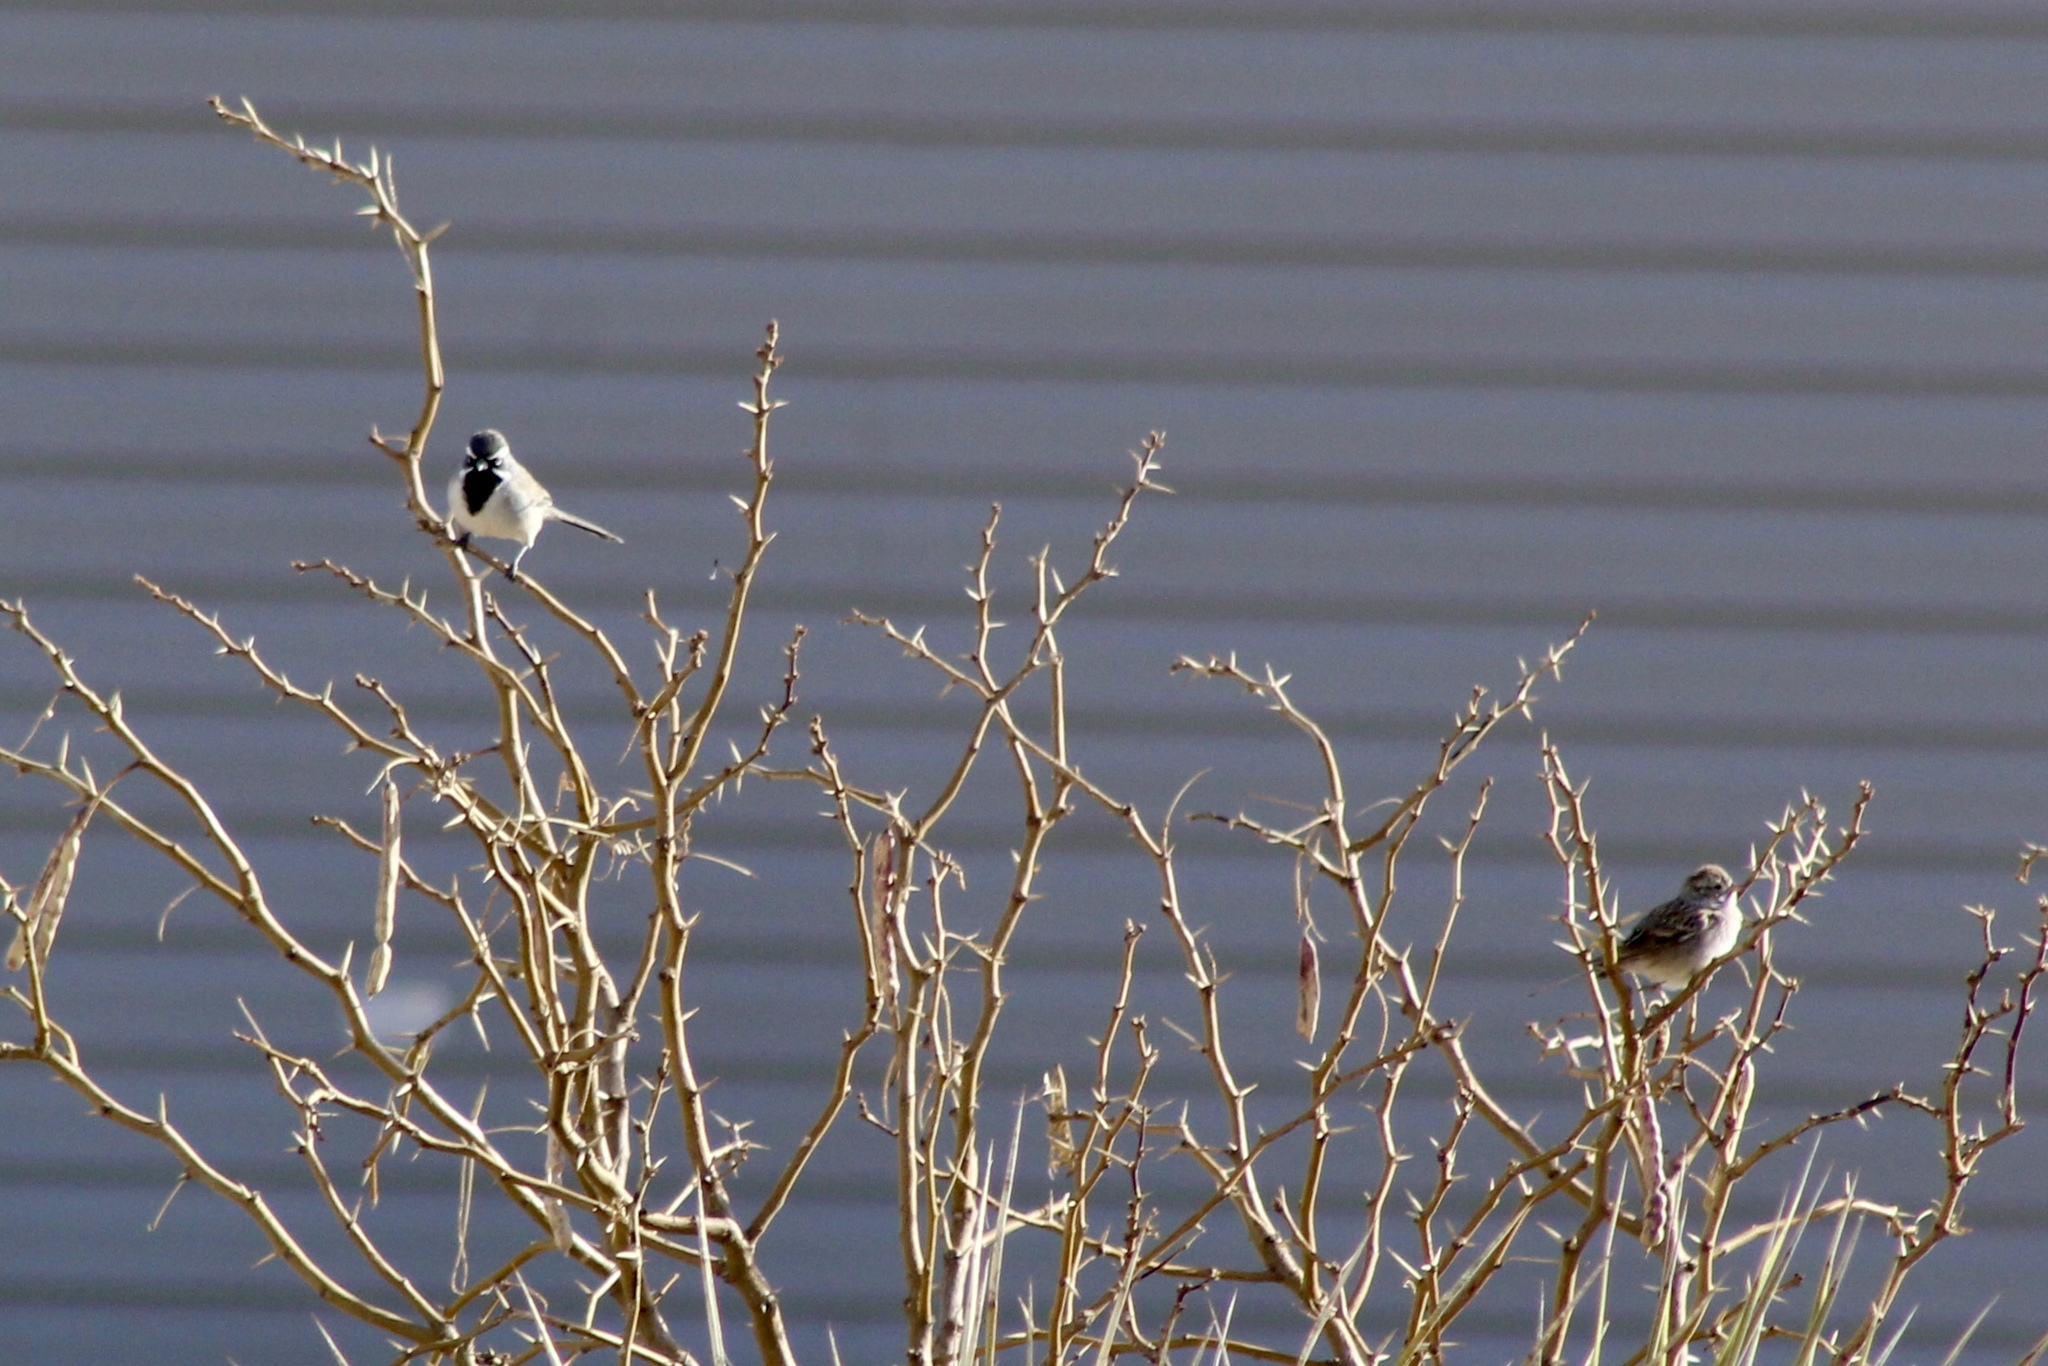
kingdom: Animalia
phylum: Chordata
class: Aves
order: Passeriformes
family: Passerellidae
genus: Amphispiza
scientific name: Amphispiza bilineata
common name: Black-throated sparrow
